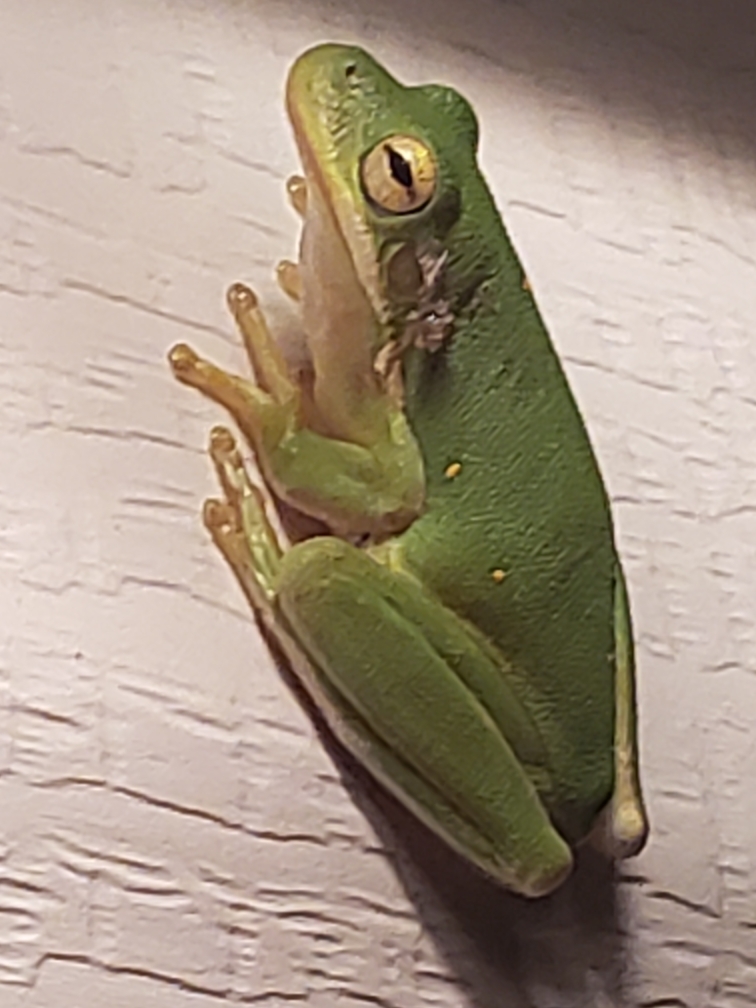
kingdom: Animalia
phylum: Chordata
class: Amphibia
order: Anura
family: Hylidae
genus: Dryophytes
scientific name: Dryophytes cinereus
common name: Green treefrog
